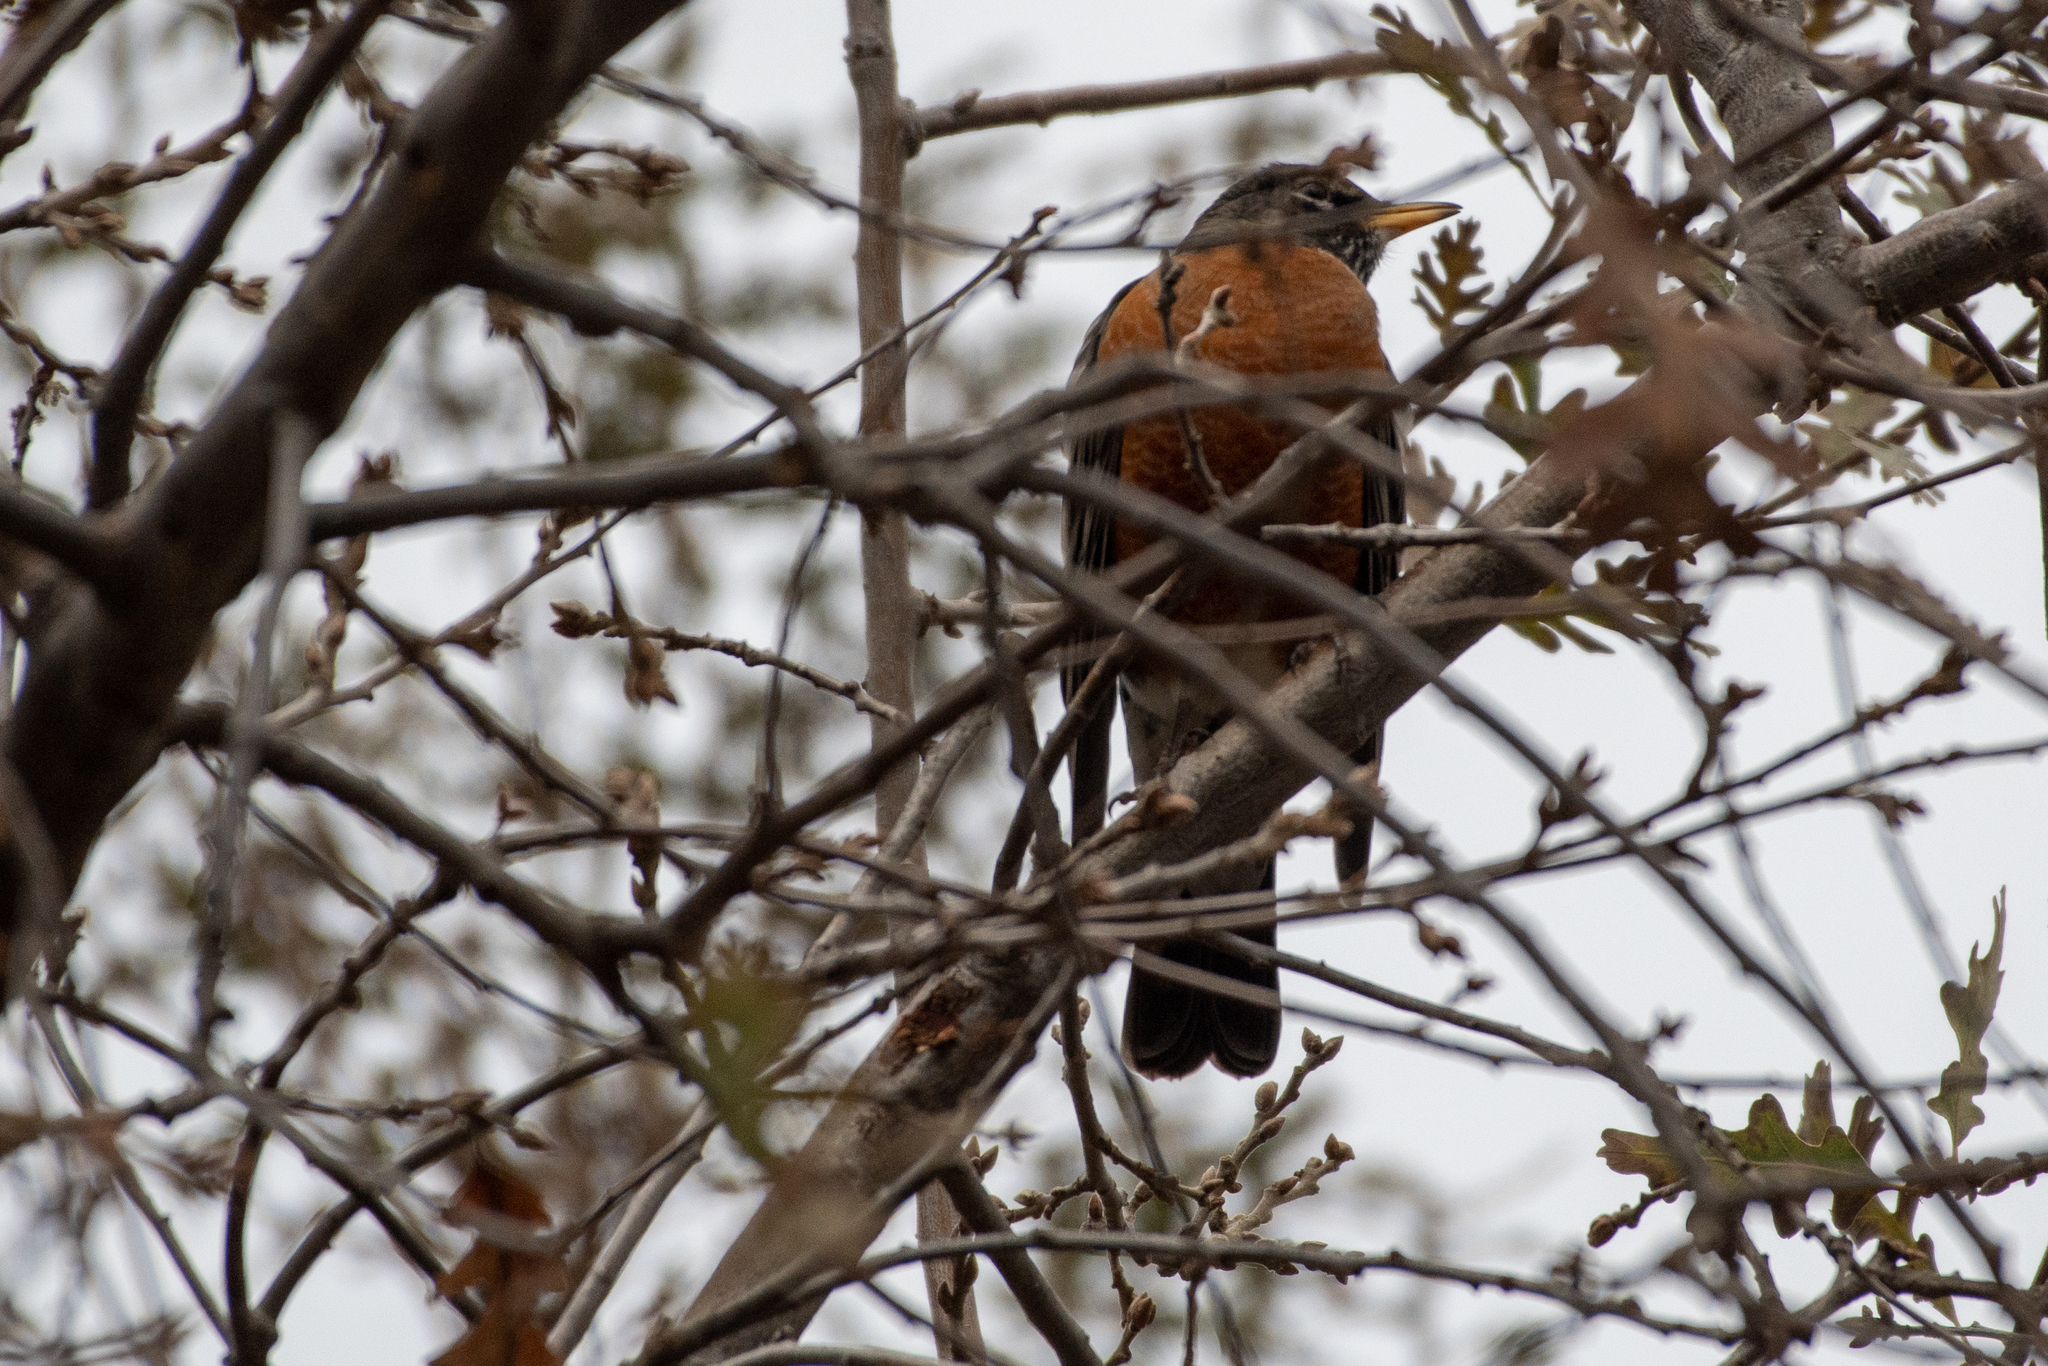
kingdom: Animalia
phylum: Chordata
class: Aves
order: Passeriformes
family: Turdidae
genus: Turdus
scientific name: Turdus migratorius
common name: American robin
